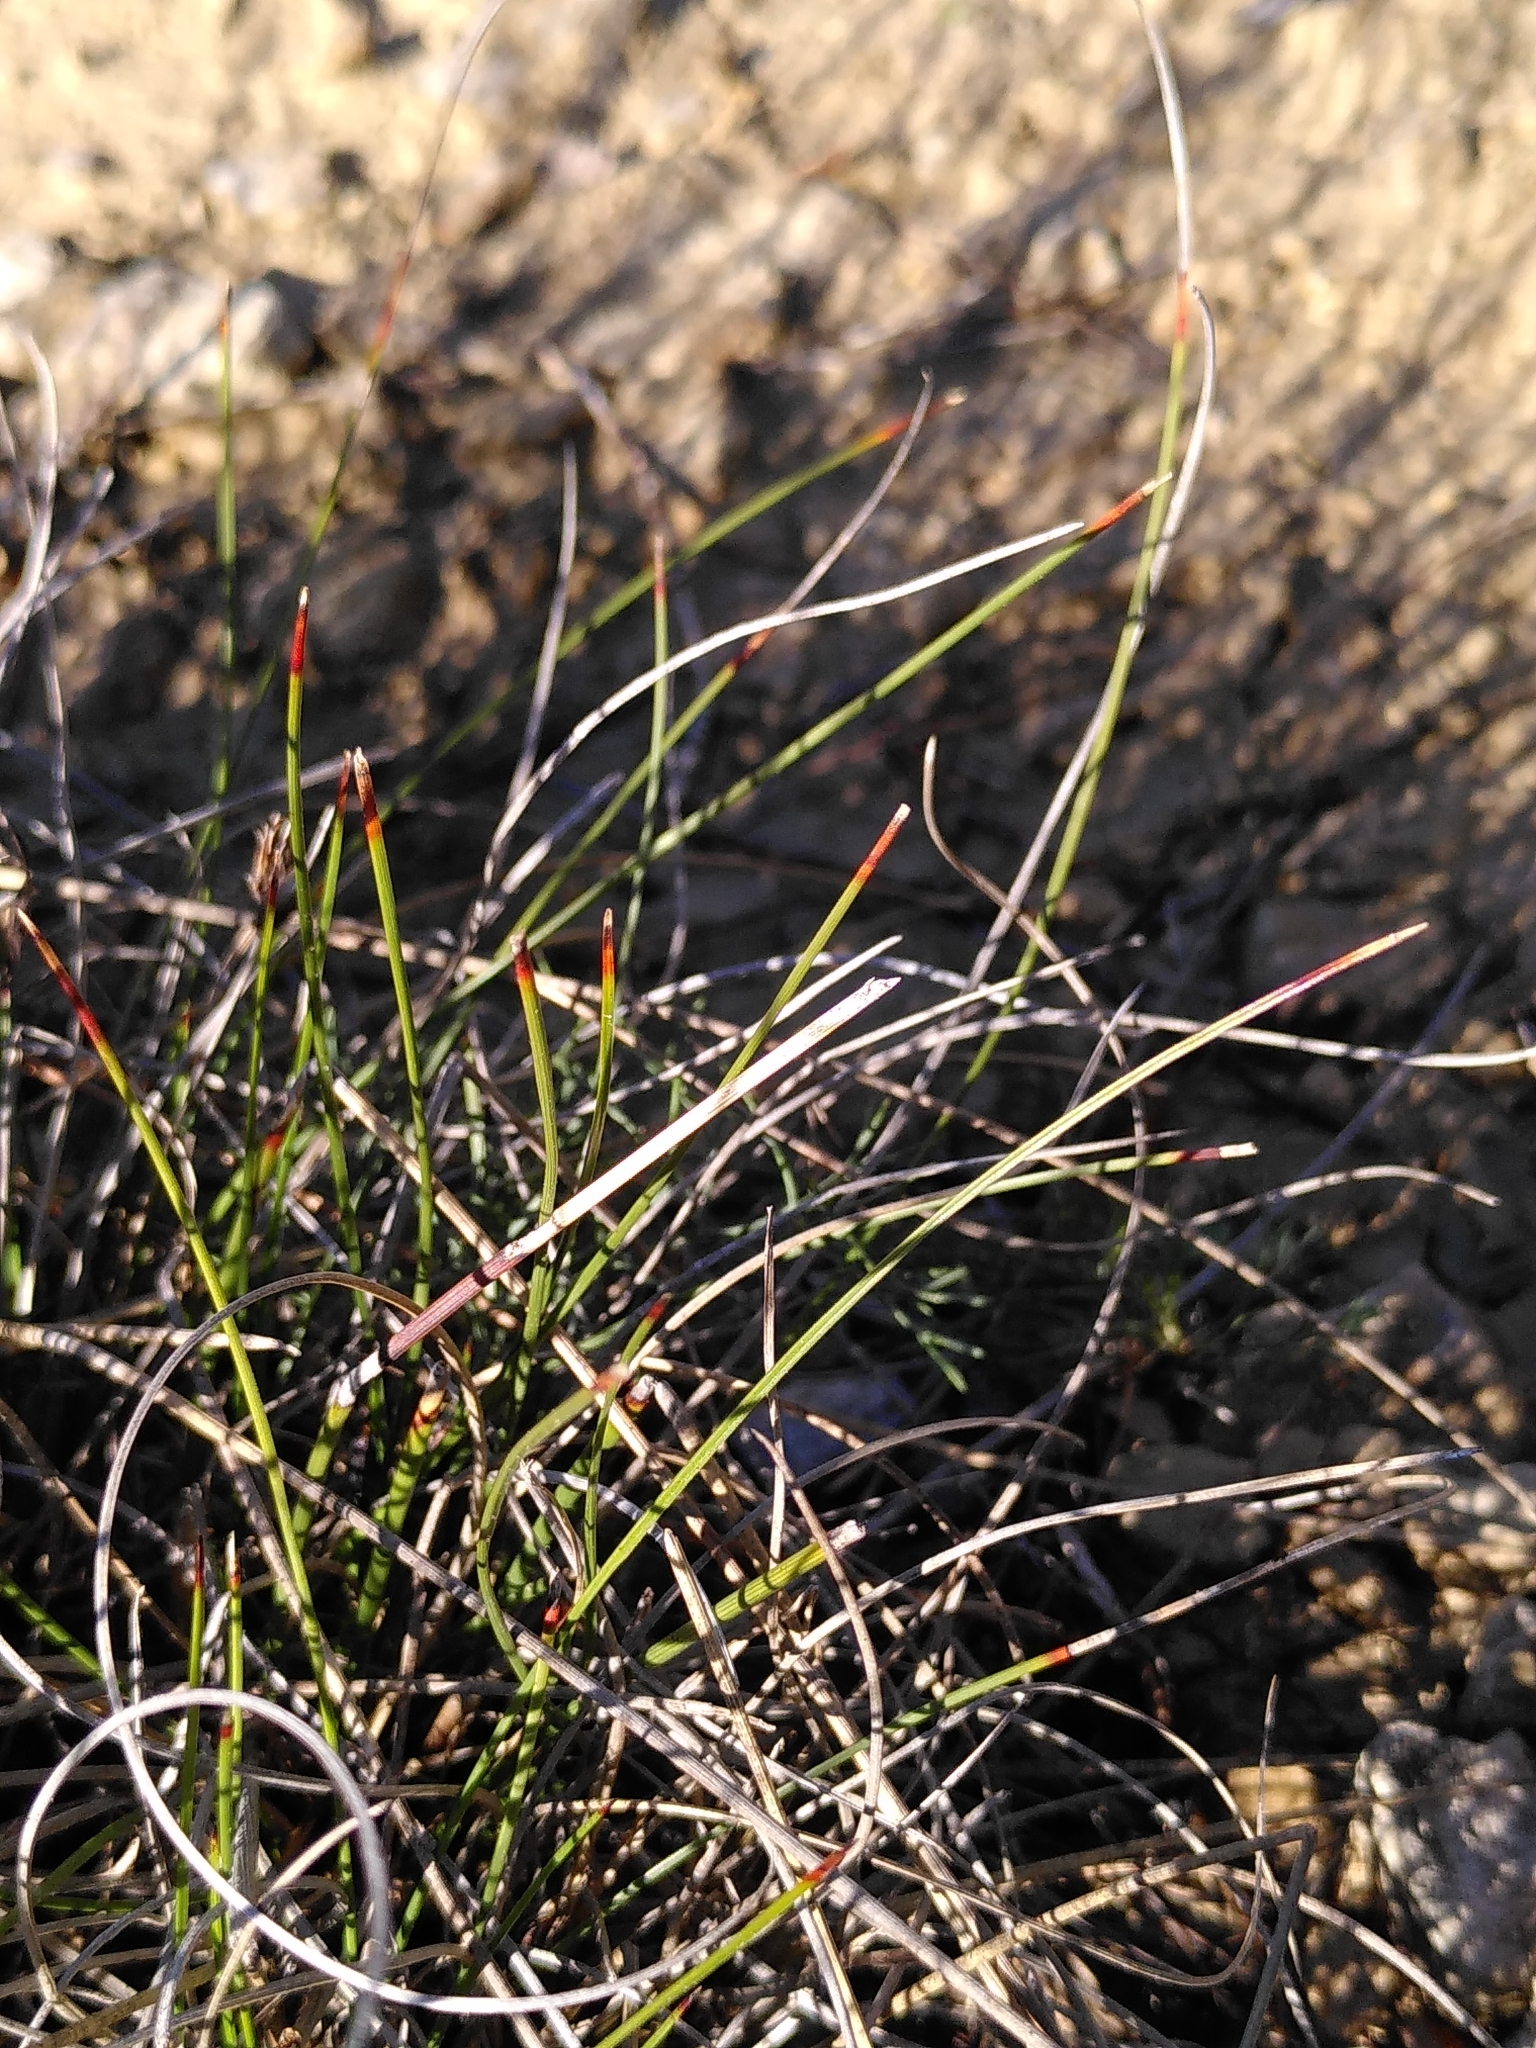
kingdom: Plantae
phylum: Tracheophyta
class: Liliopsida
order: Poales
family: Cyperaceae
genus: Schoenus
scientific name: Schoenus nigricans
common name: Black bog-rush
